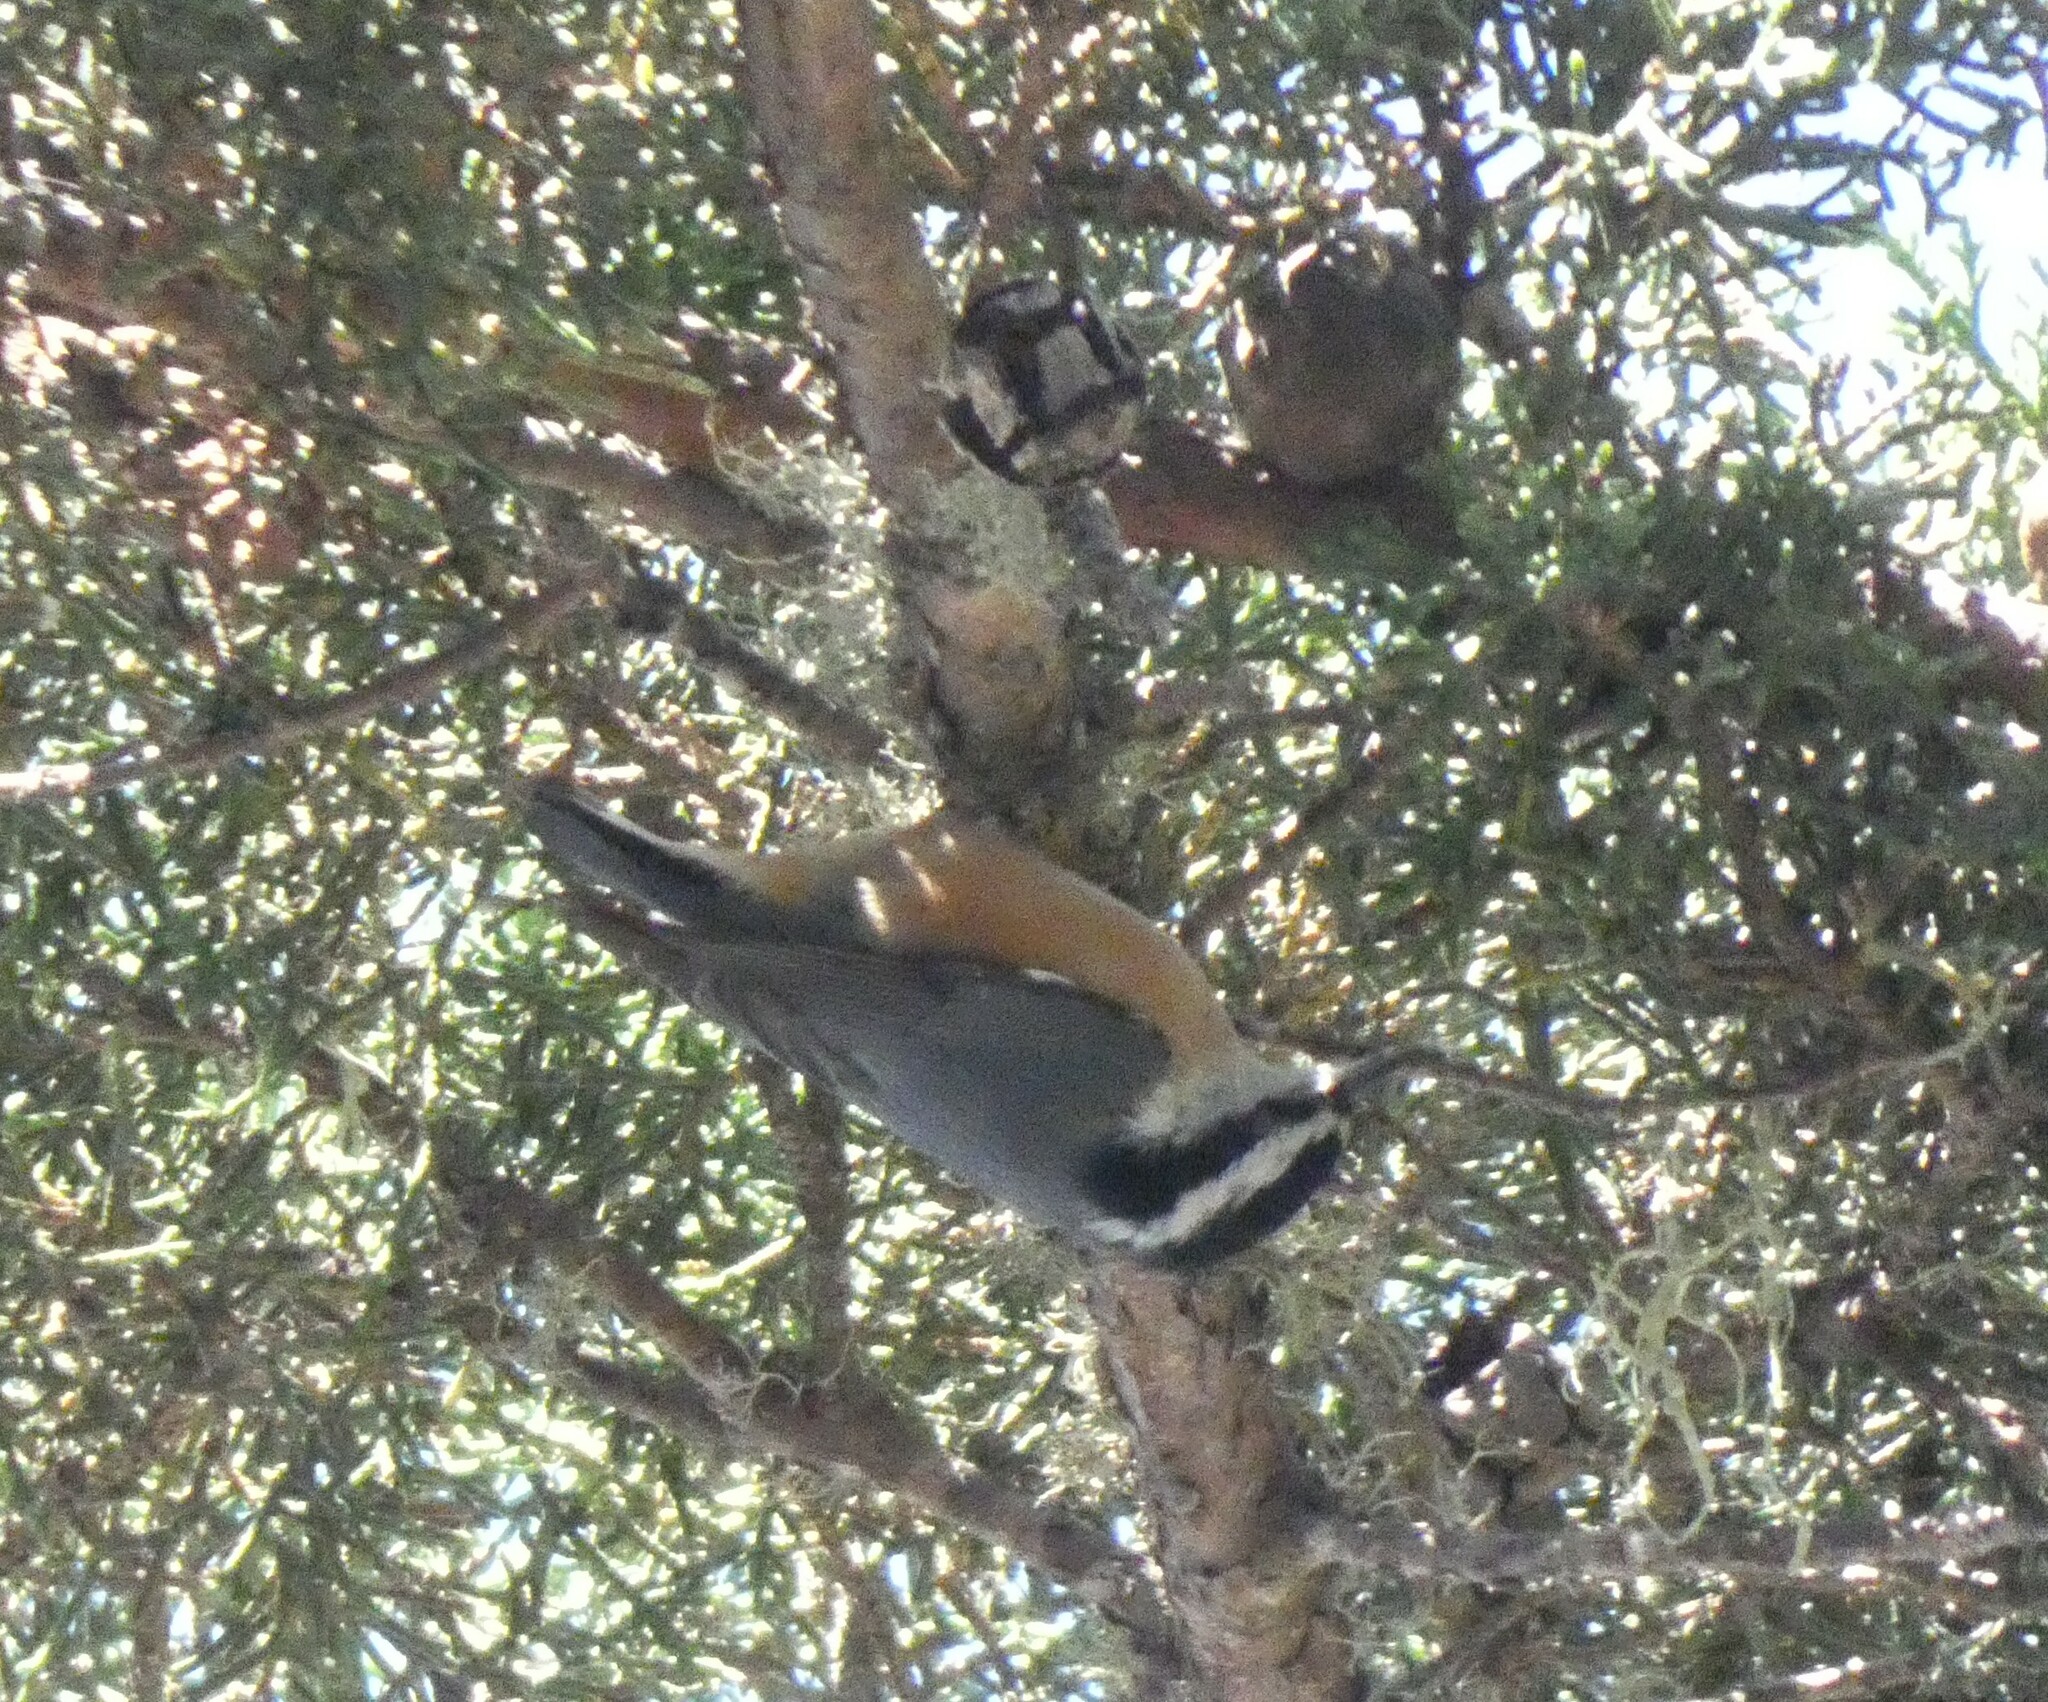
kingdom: Animalia
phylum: Chordata
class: Aves
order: Passeriformes
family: Sittidae
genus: Sitta
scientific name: Sitta canadensis
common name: Red-breasted nuthatch
